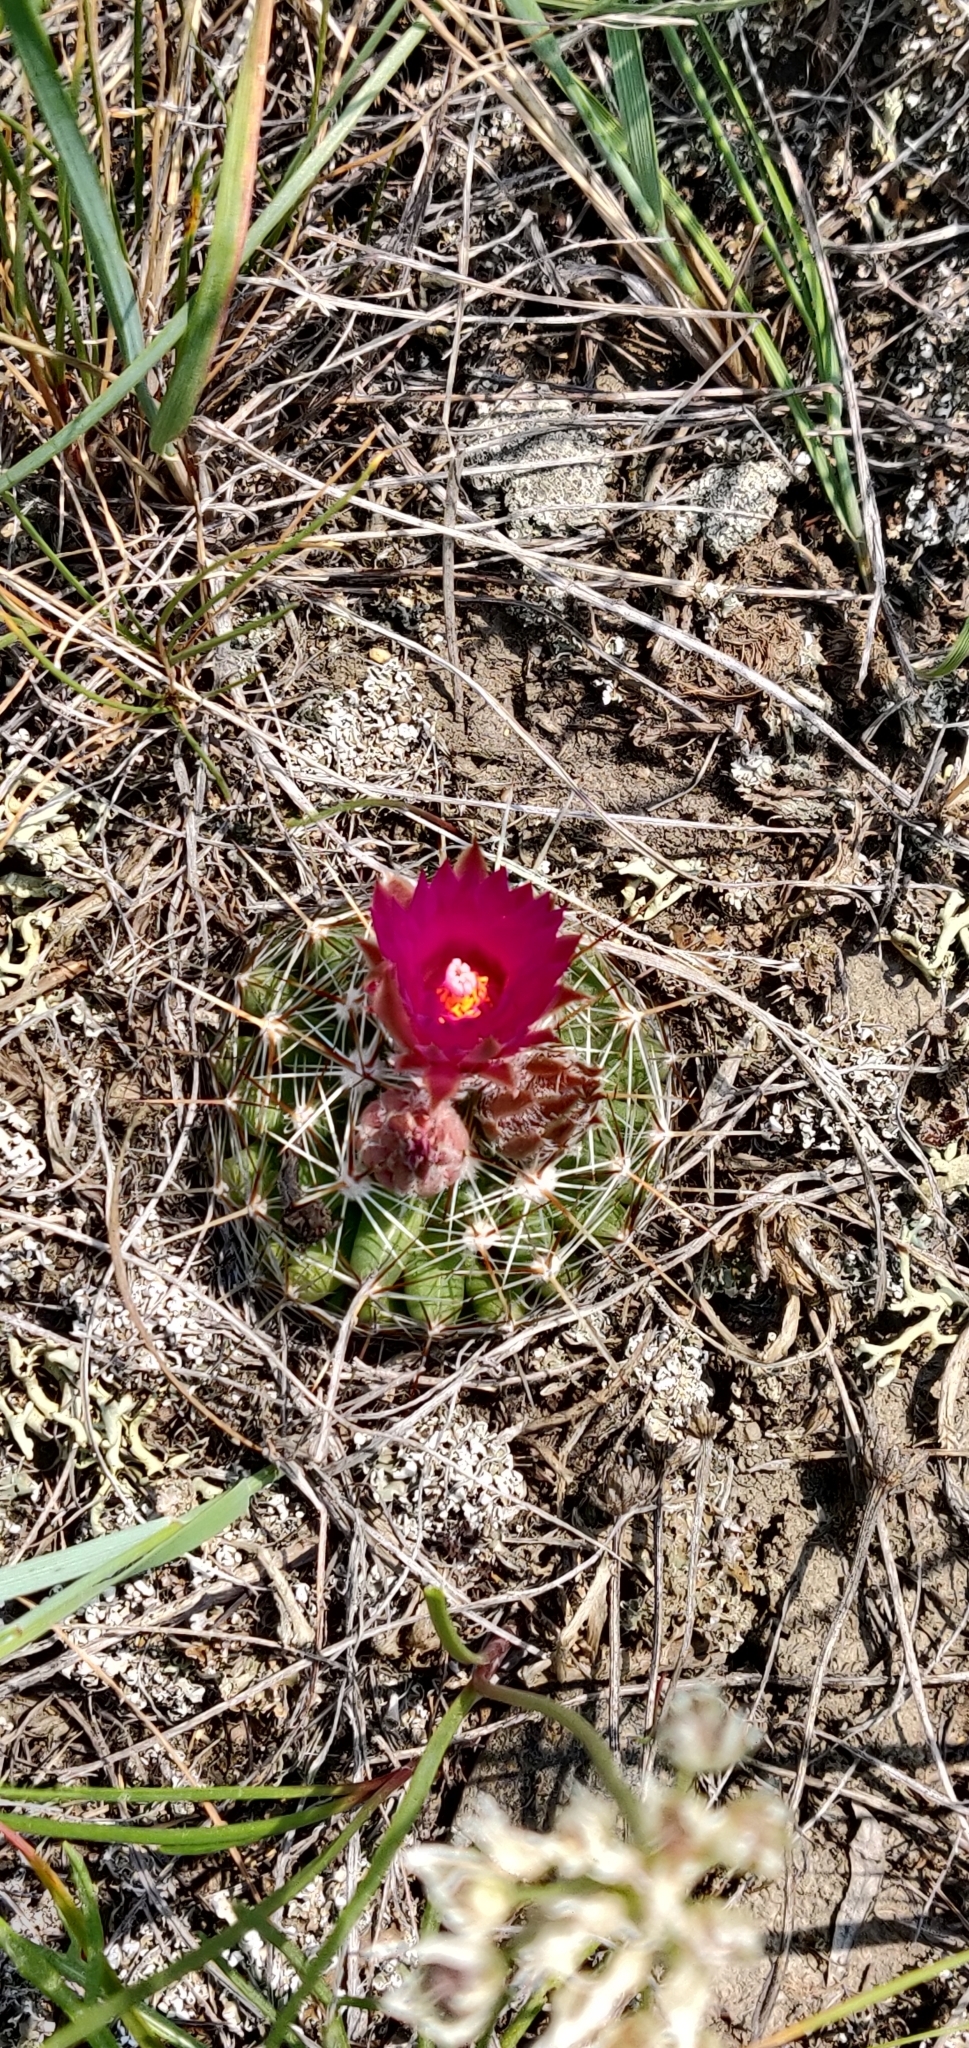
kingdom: Plantae
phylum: Tracheophyta
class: Magnoliopsida
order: Caryophyllales
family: Cactaceae
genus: Pelecyphora
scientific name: Pelecyphora vivipara
